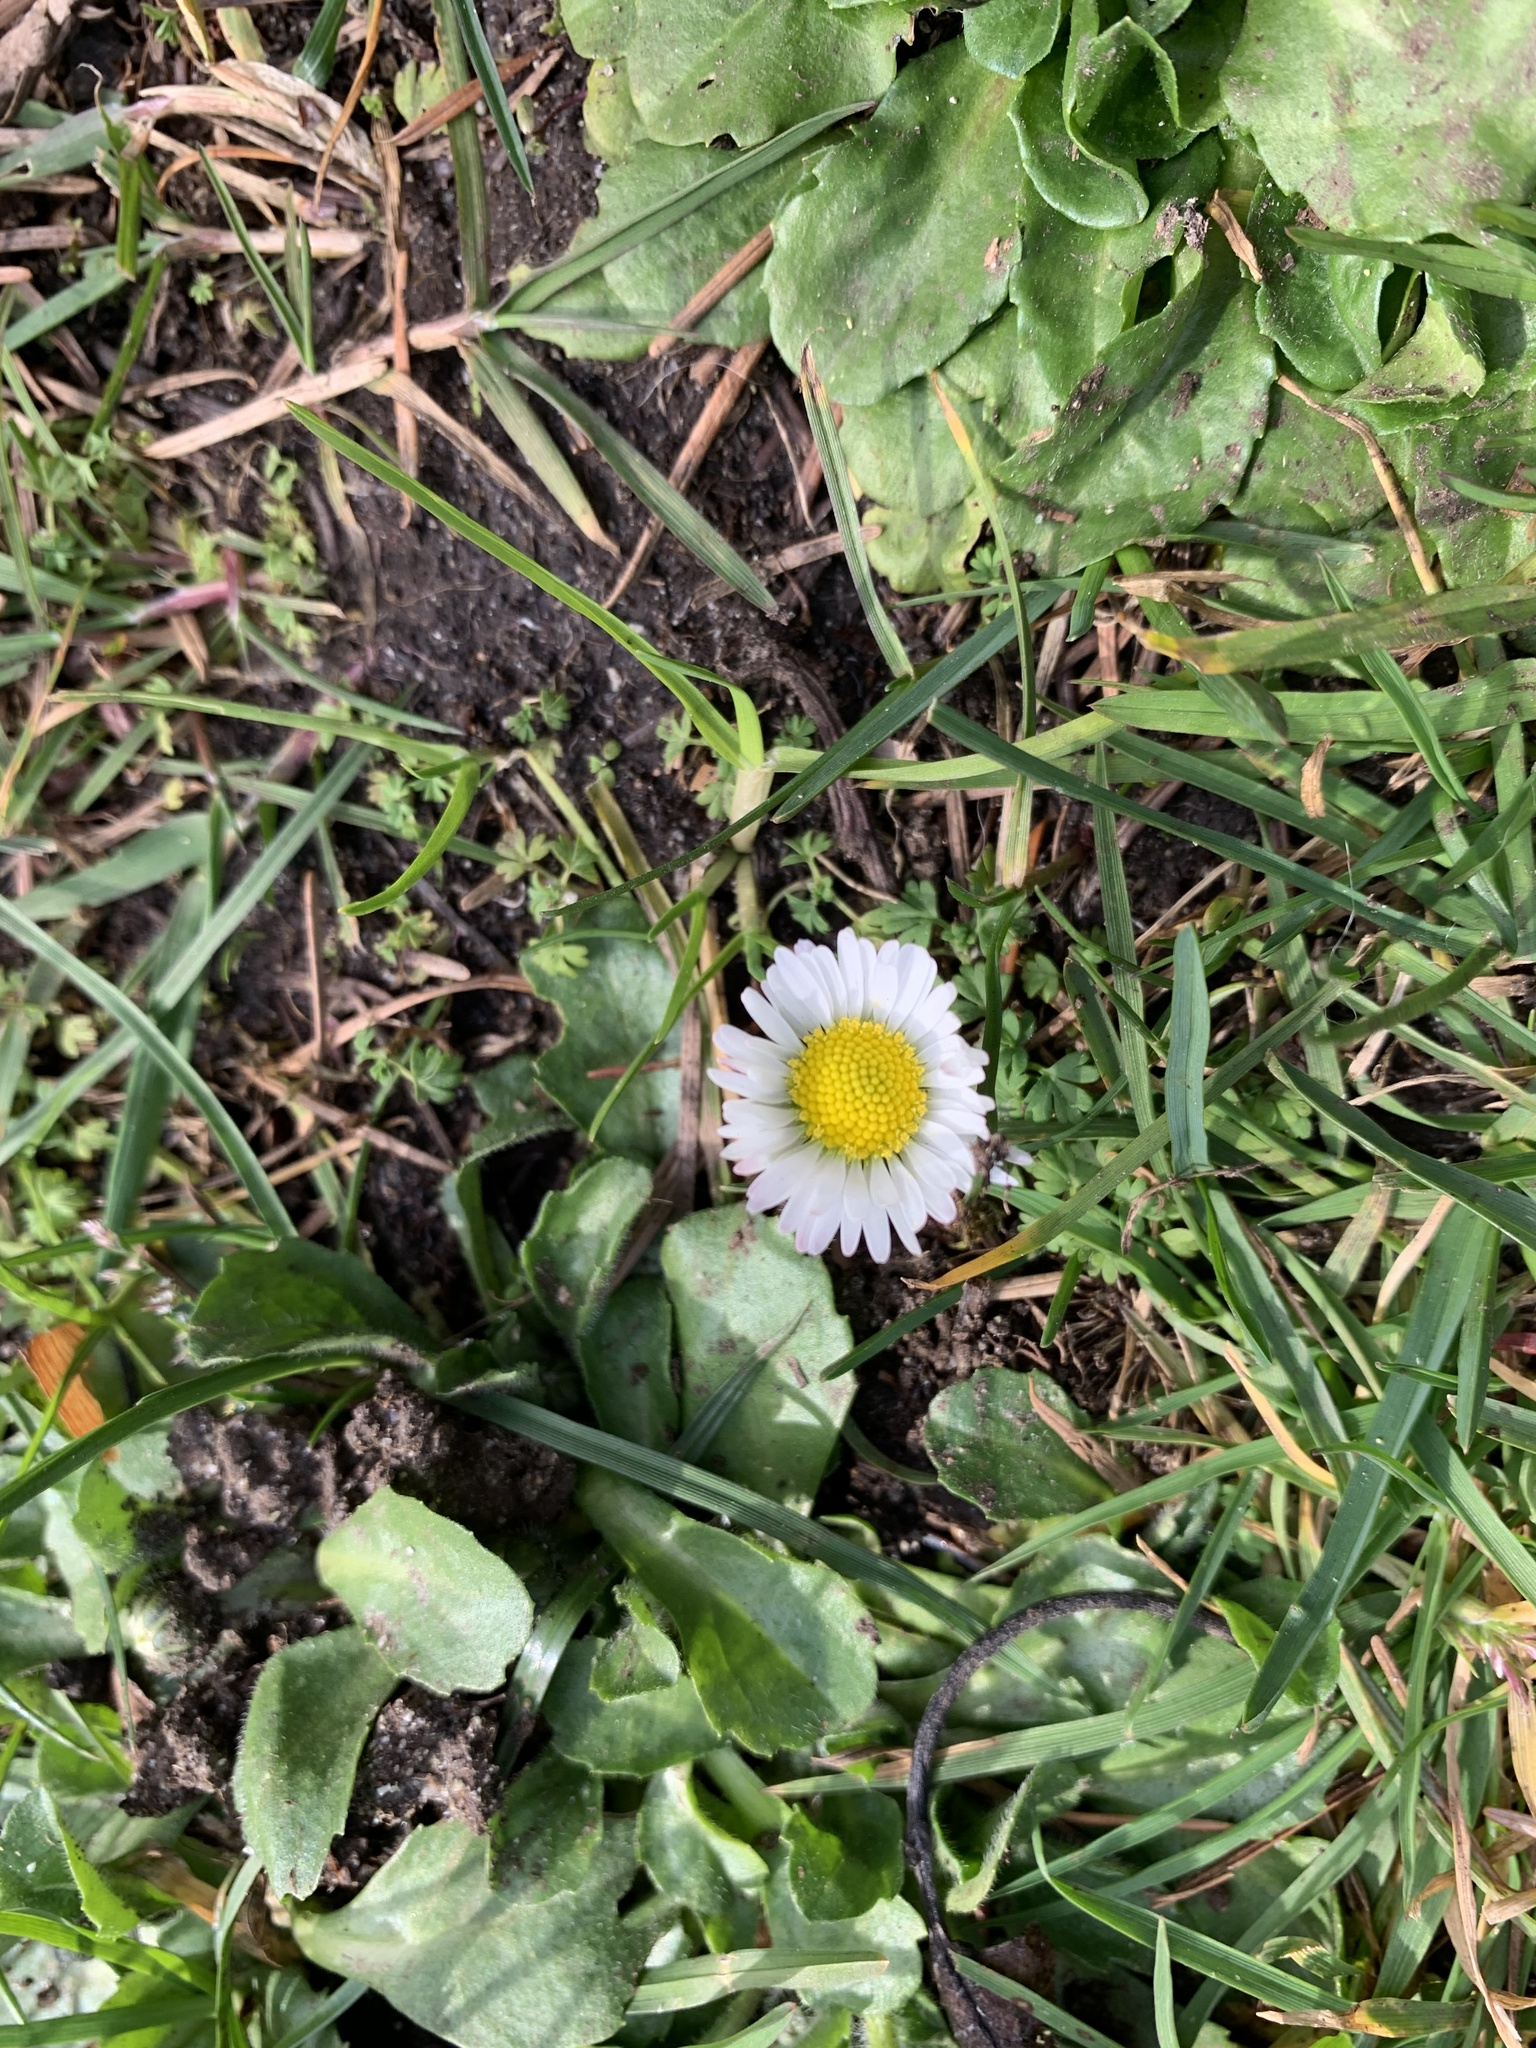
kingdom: Plantae
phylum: Tracheophyta
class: Magnoliopsida
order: Asterales
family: Asteraceae
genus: Bellis
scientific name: Bellis perennis
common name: Lawndaisy
